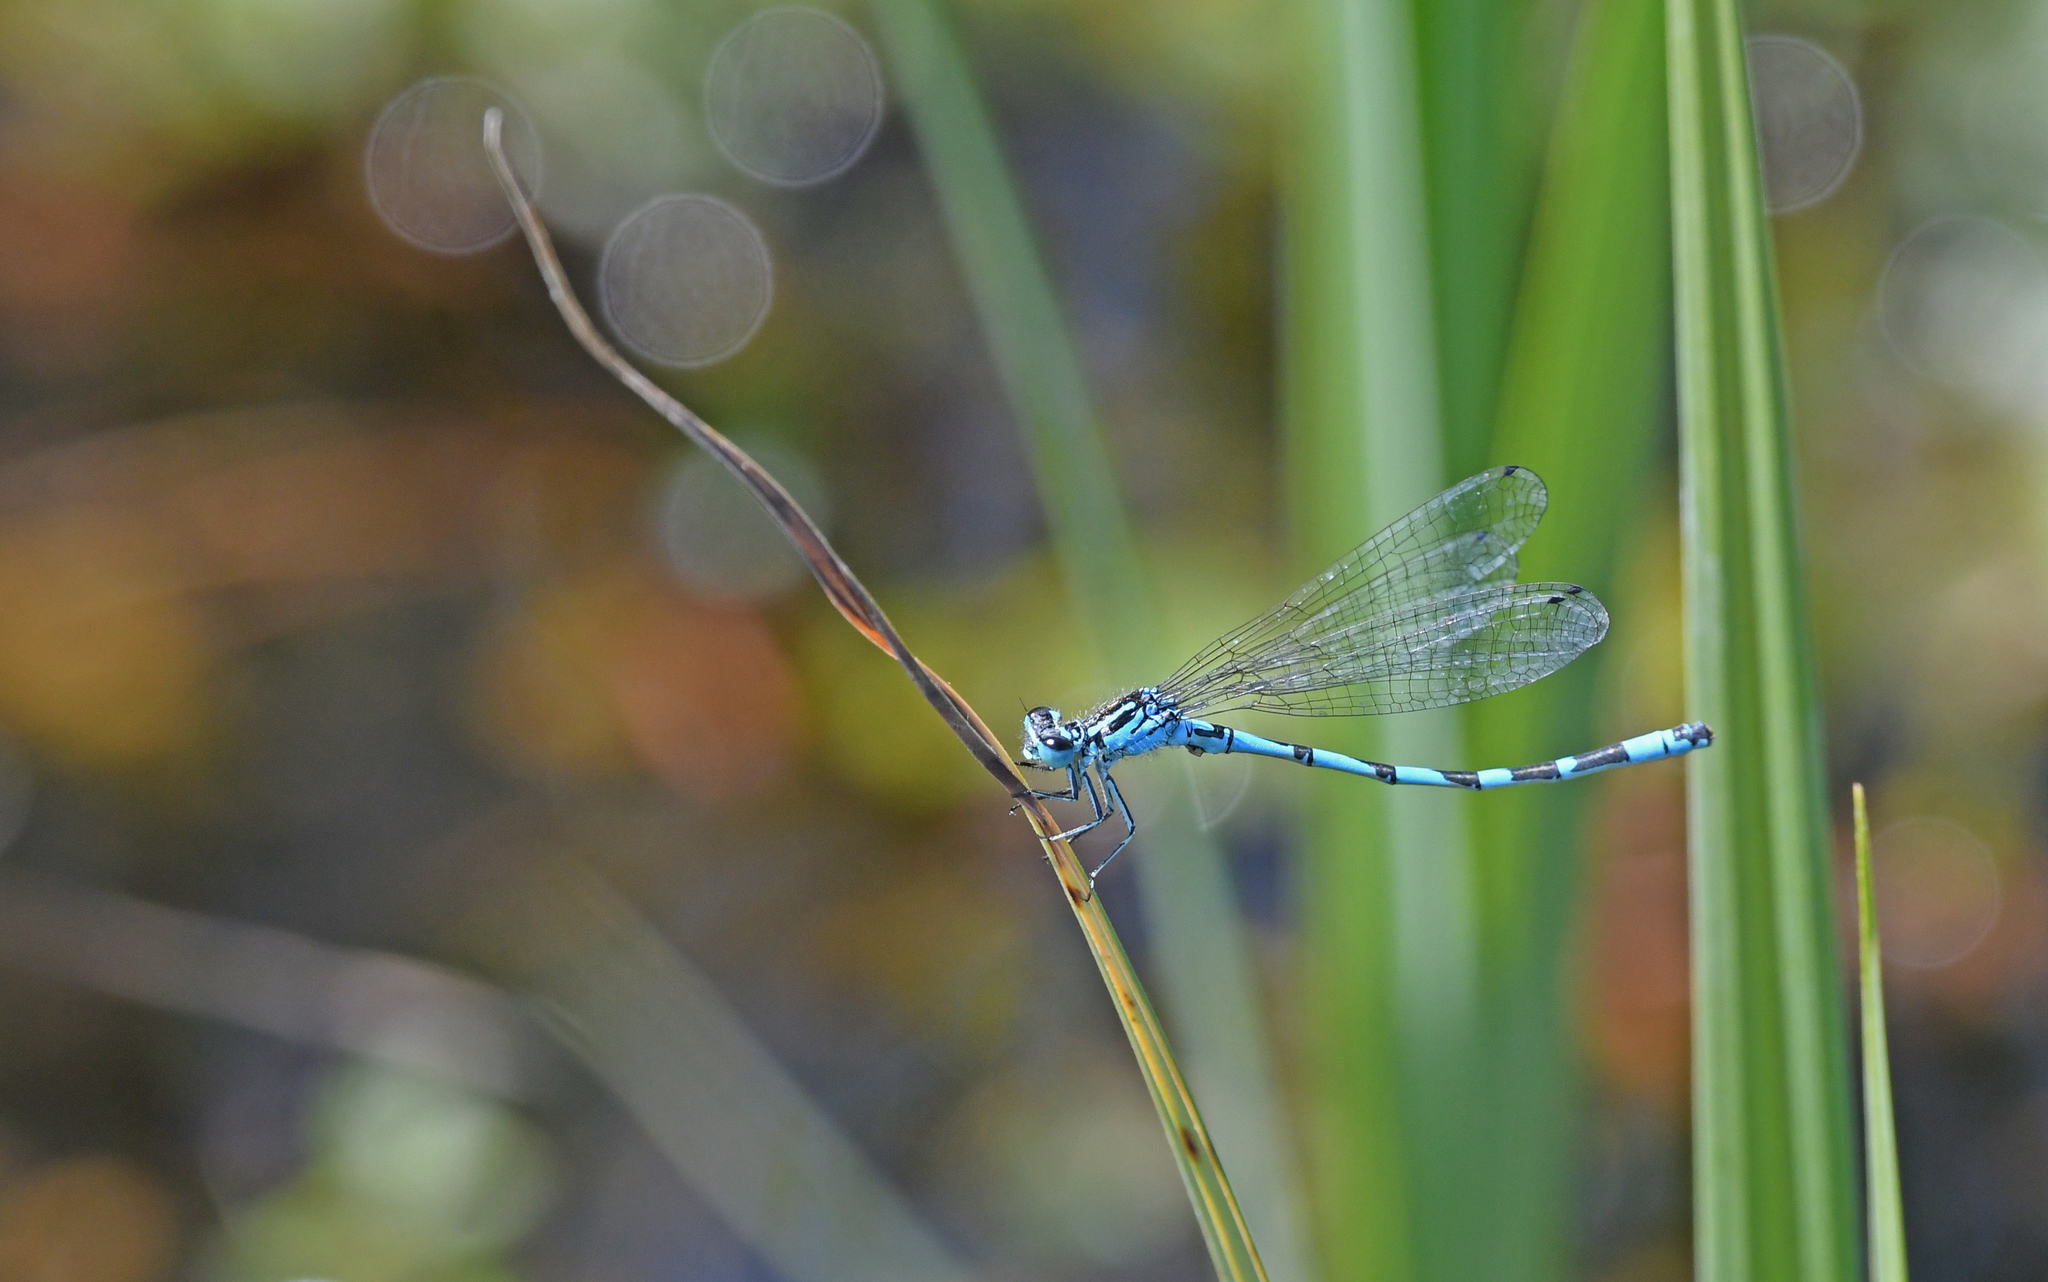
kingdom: Animalia
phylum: Arthropoda
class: Insecta
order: Odonata
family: Coenagrionidae
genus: Coenagrion
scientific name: Coenagrion ornatum
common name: Ornate bluet
